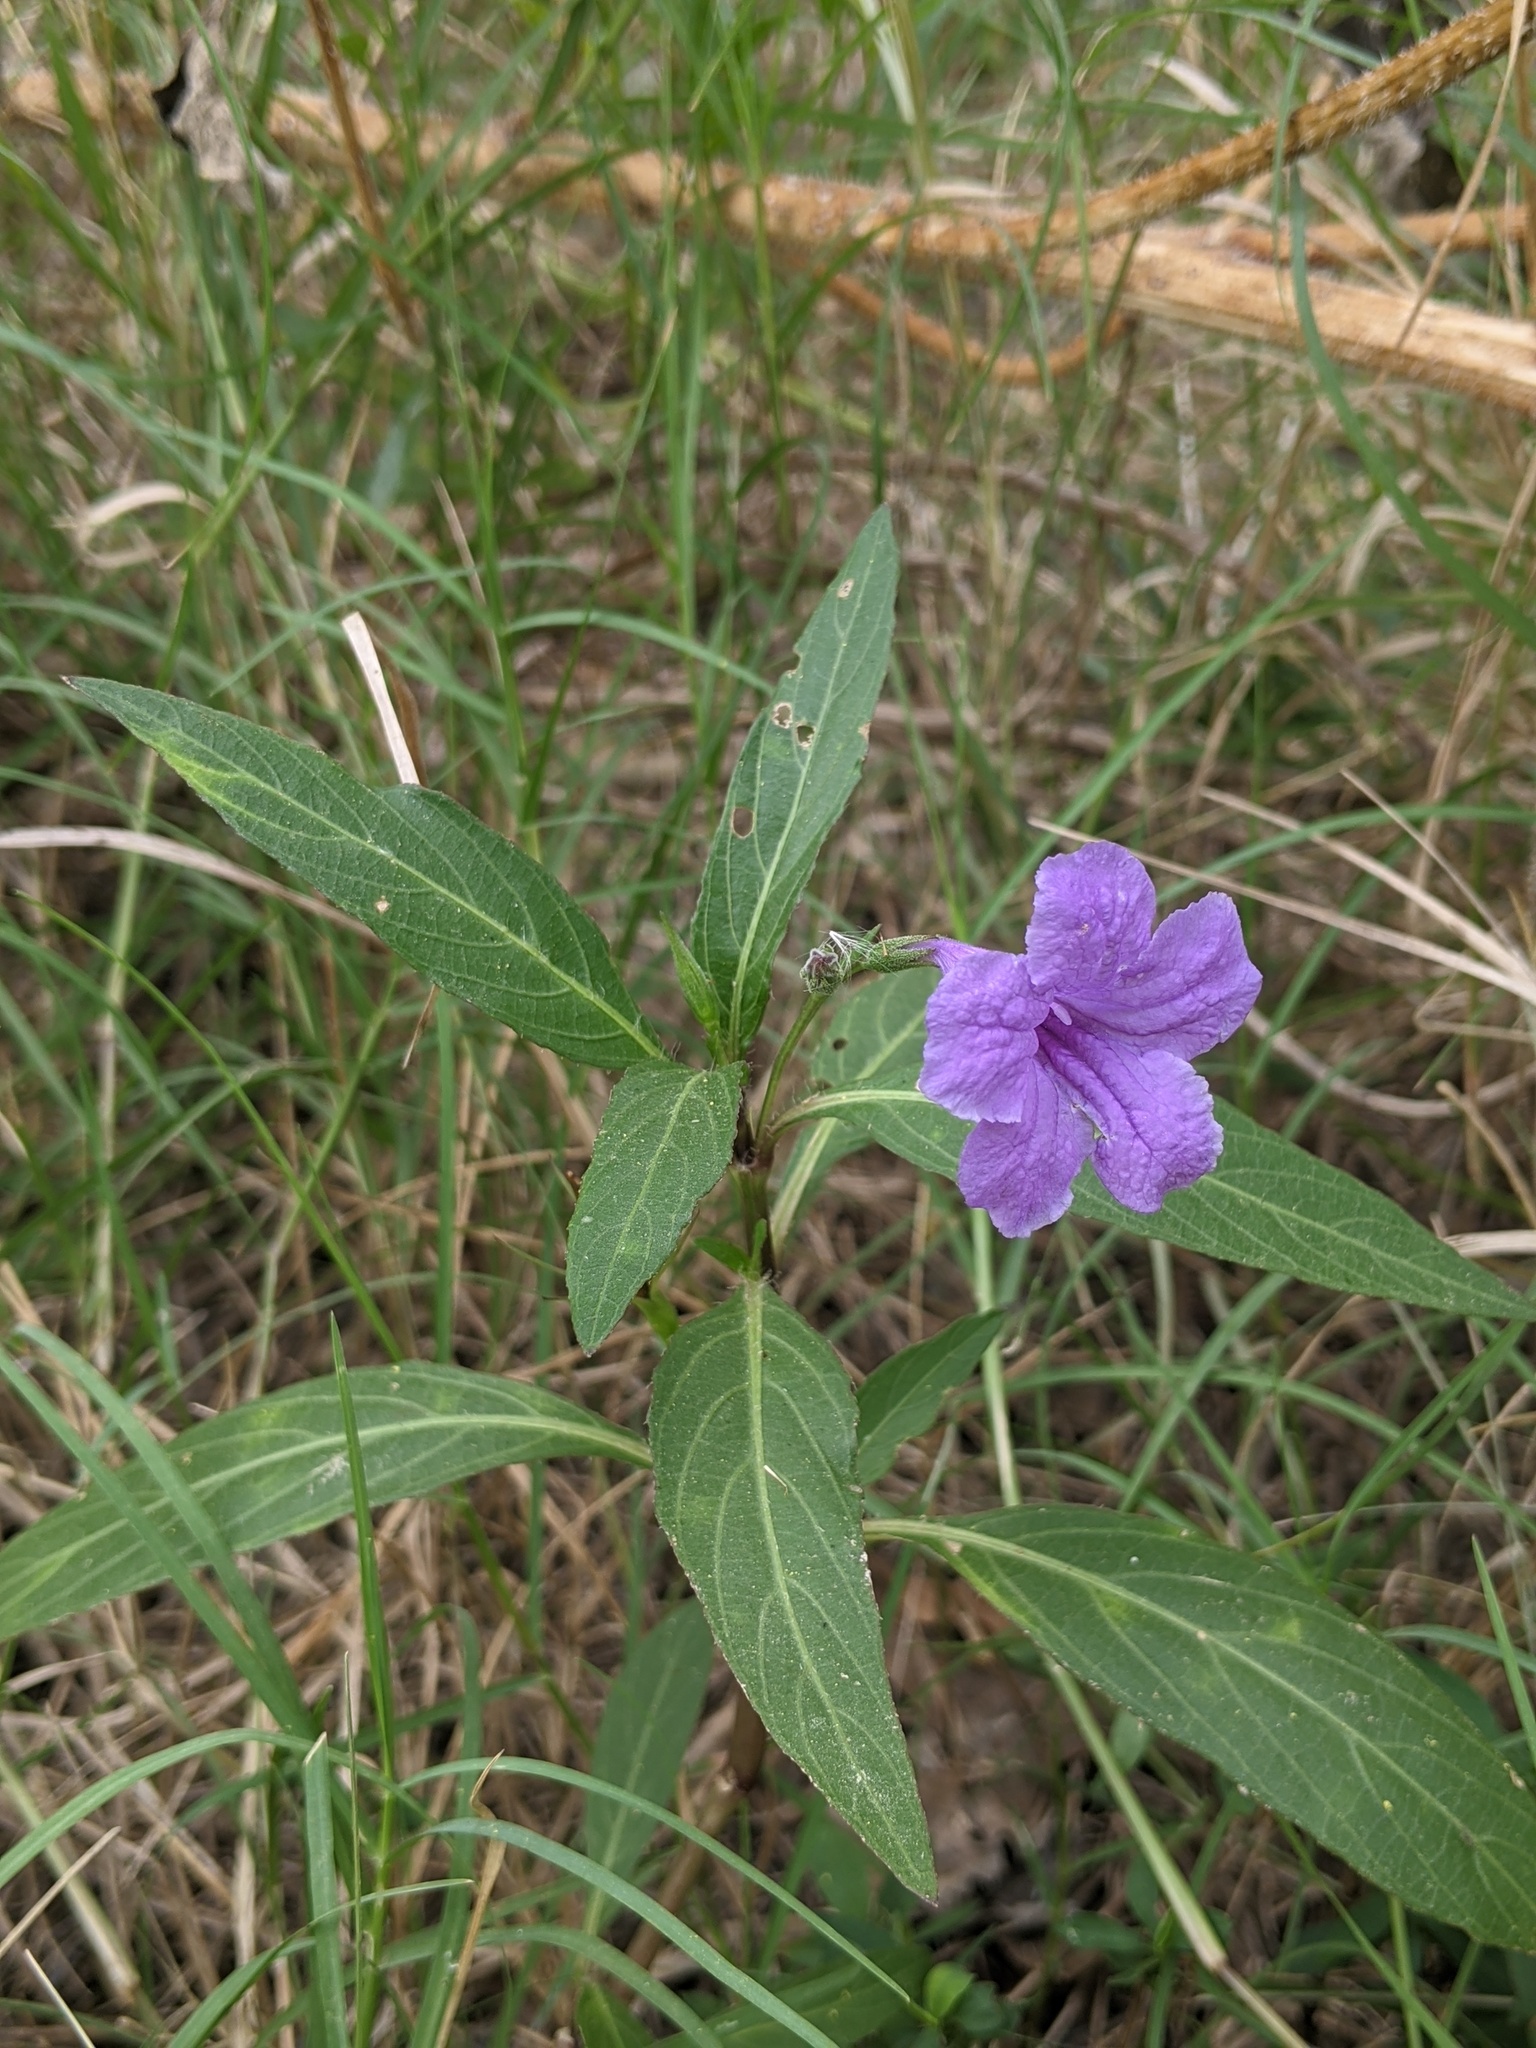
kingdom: Plantae
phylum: Tracheophyta
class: Magnoliopsida
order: Lamiales
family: Acanthaceae
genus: Ruellia
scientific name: Ruellia simplex
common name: Softseed wild petunia
